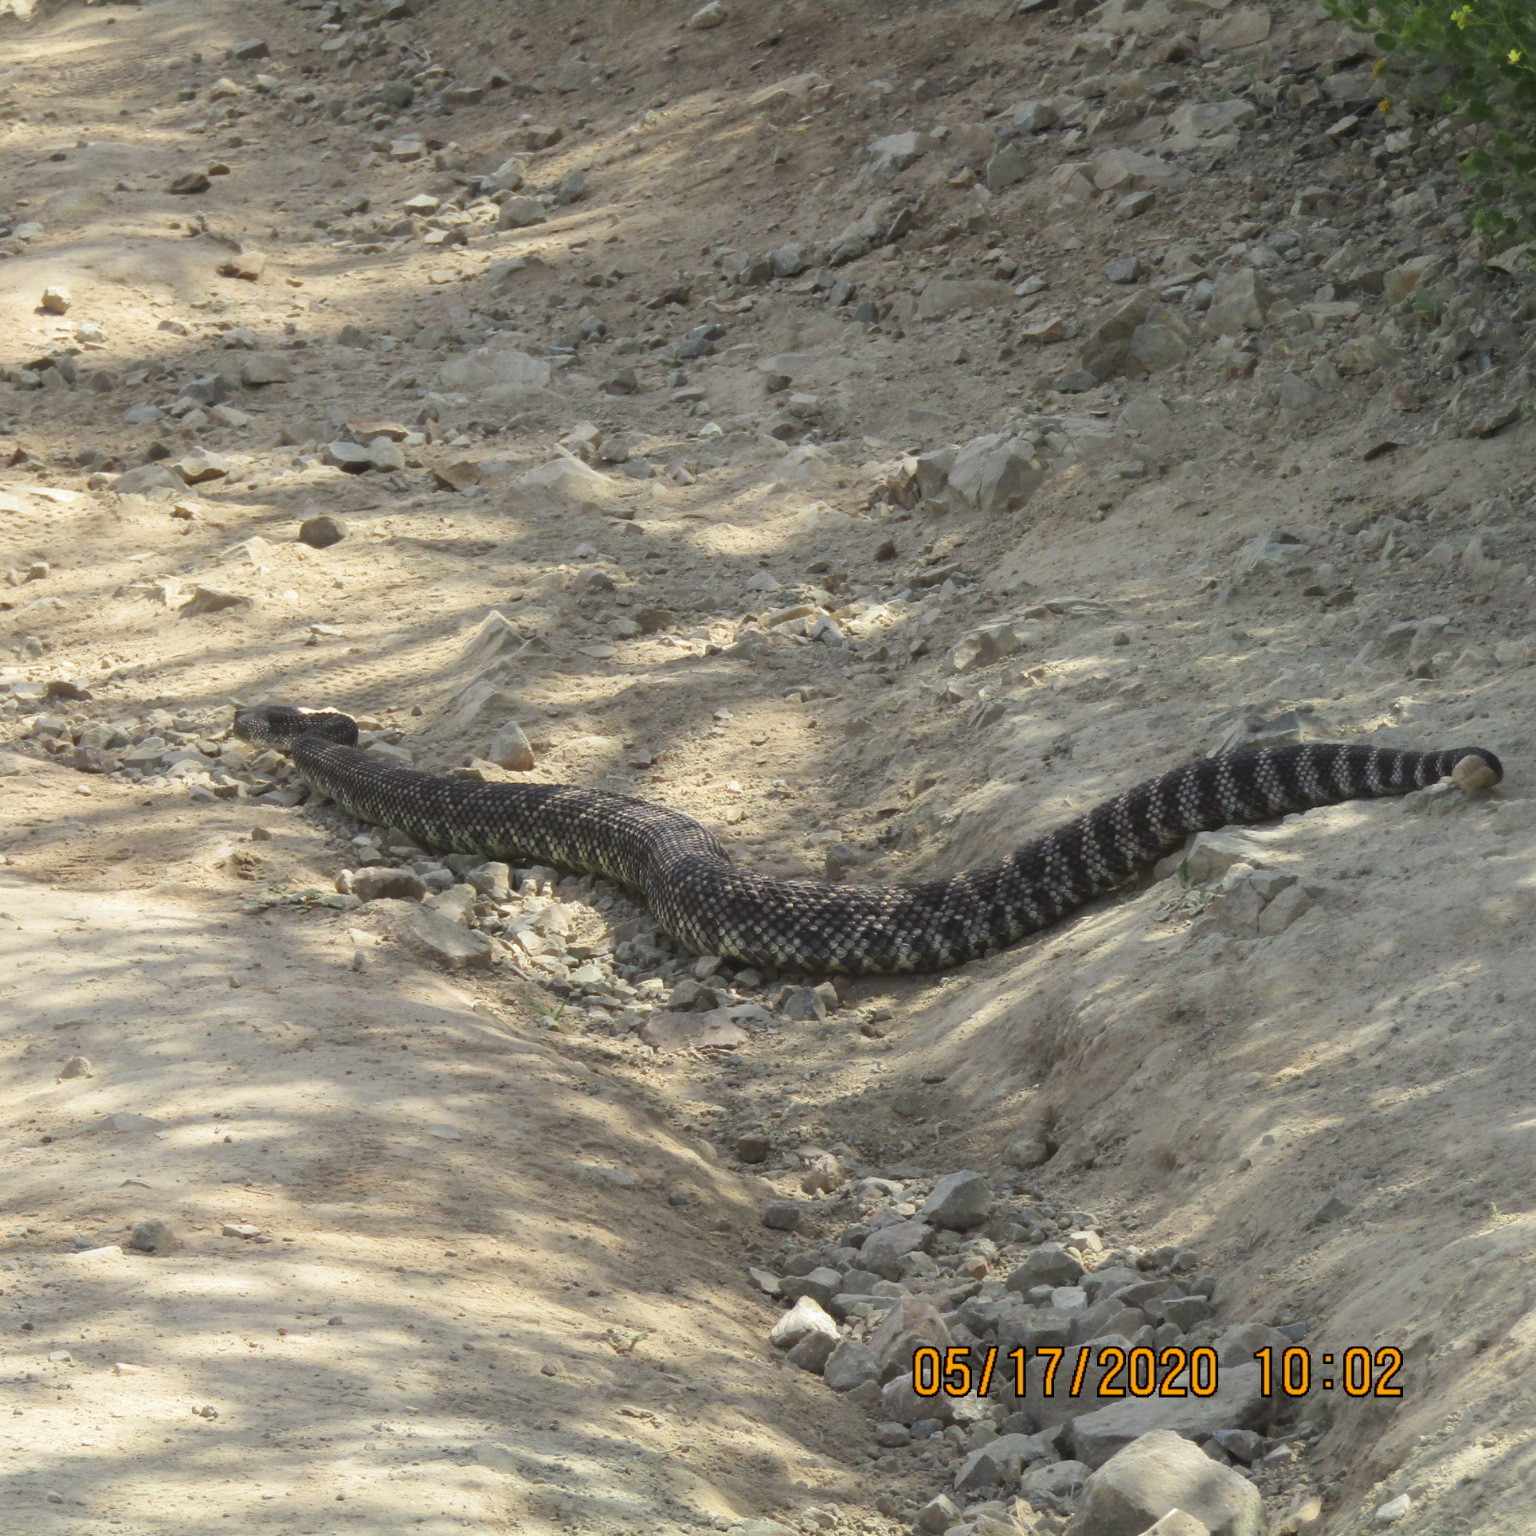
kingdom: Animalia
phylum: Chordata
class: Squamata
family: Viperidae
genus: Crotalus
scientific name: Crotalus oreganus
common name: Abyssus
